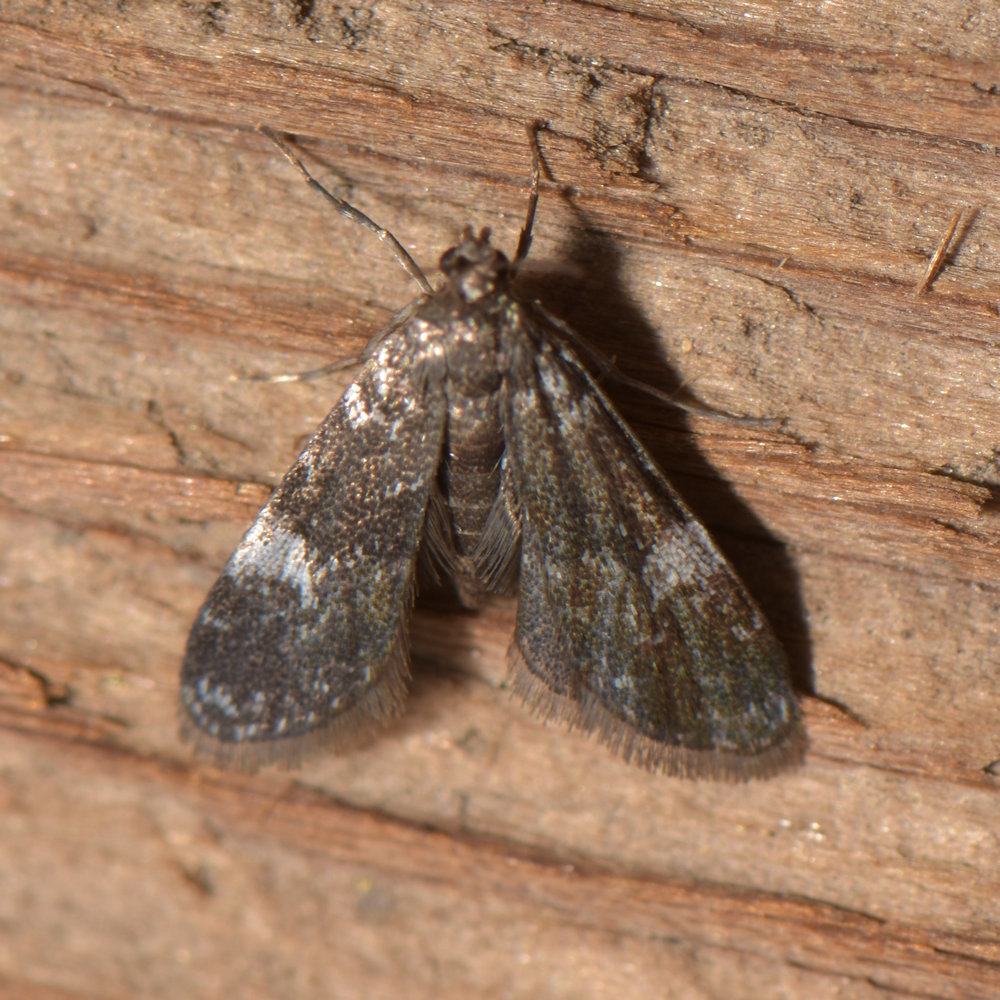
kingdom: Animalia
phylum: Arthropoda
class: Insecta
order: Lepidoptera
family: Crambidae
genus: Elophila
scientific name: Elophila tinealis
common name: Black duckweed moth
